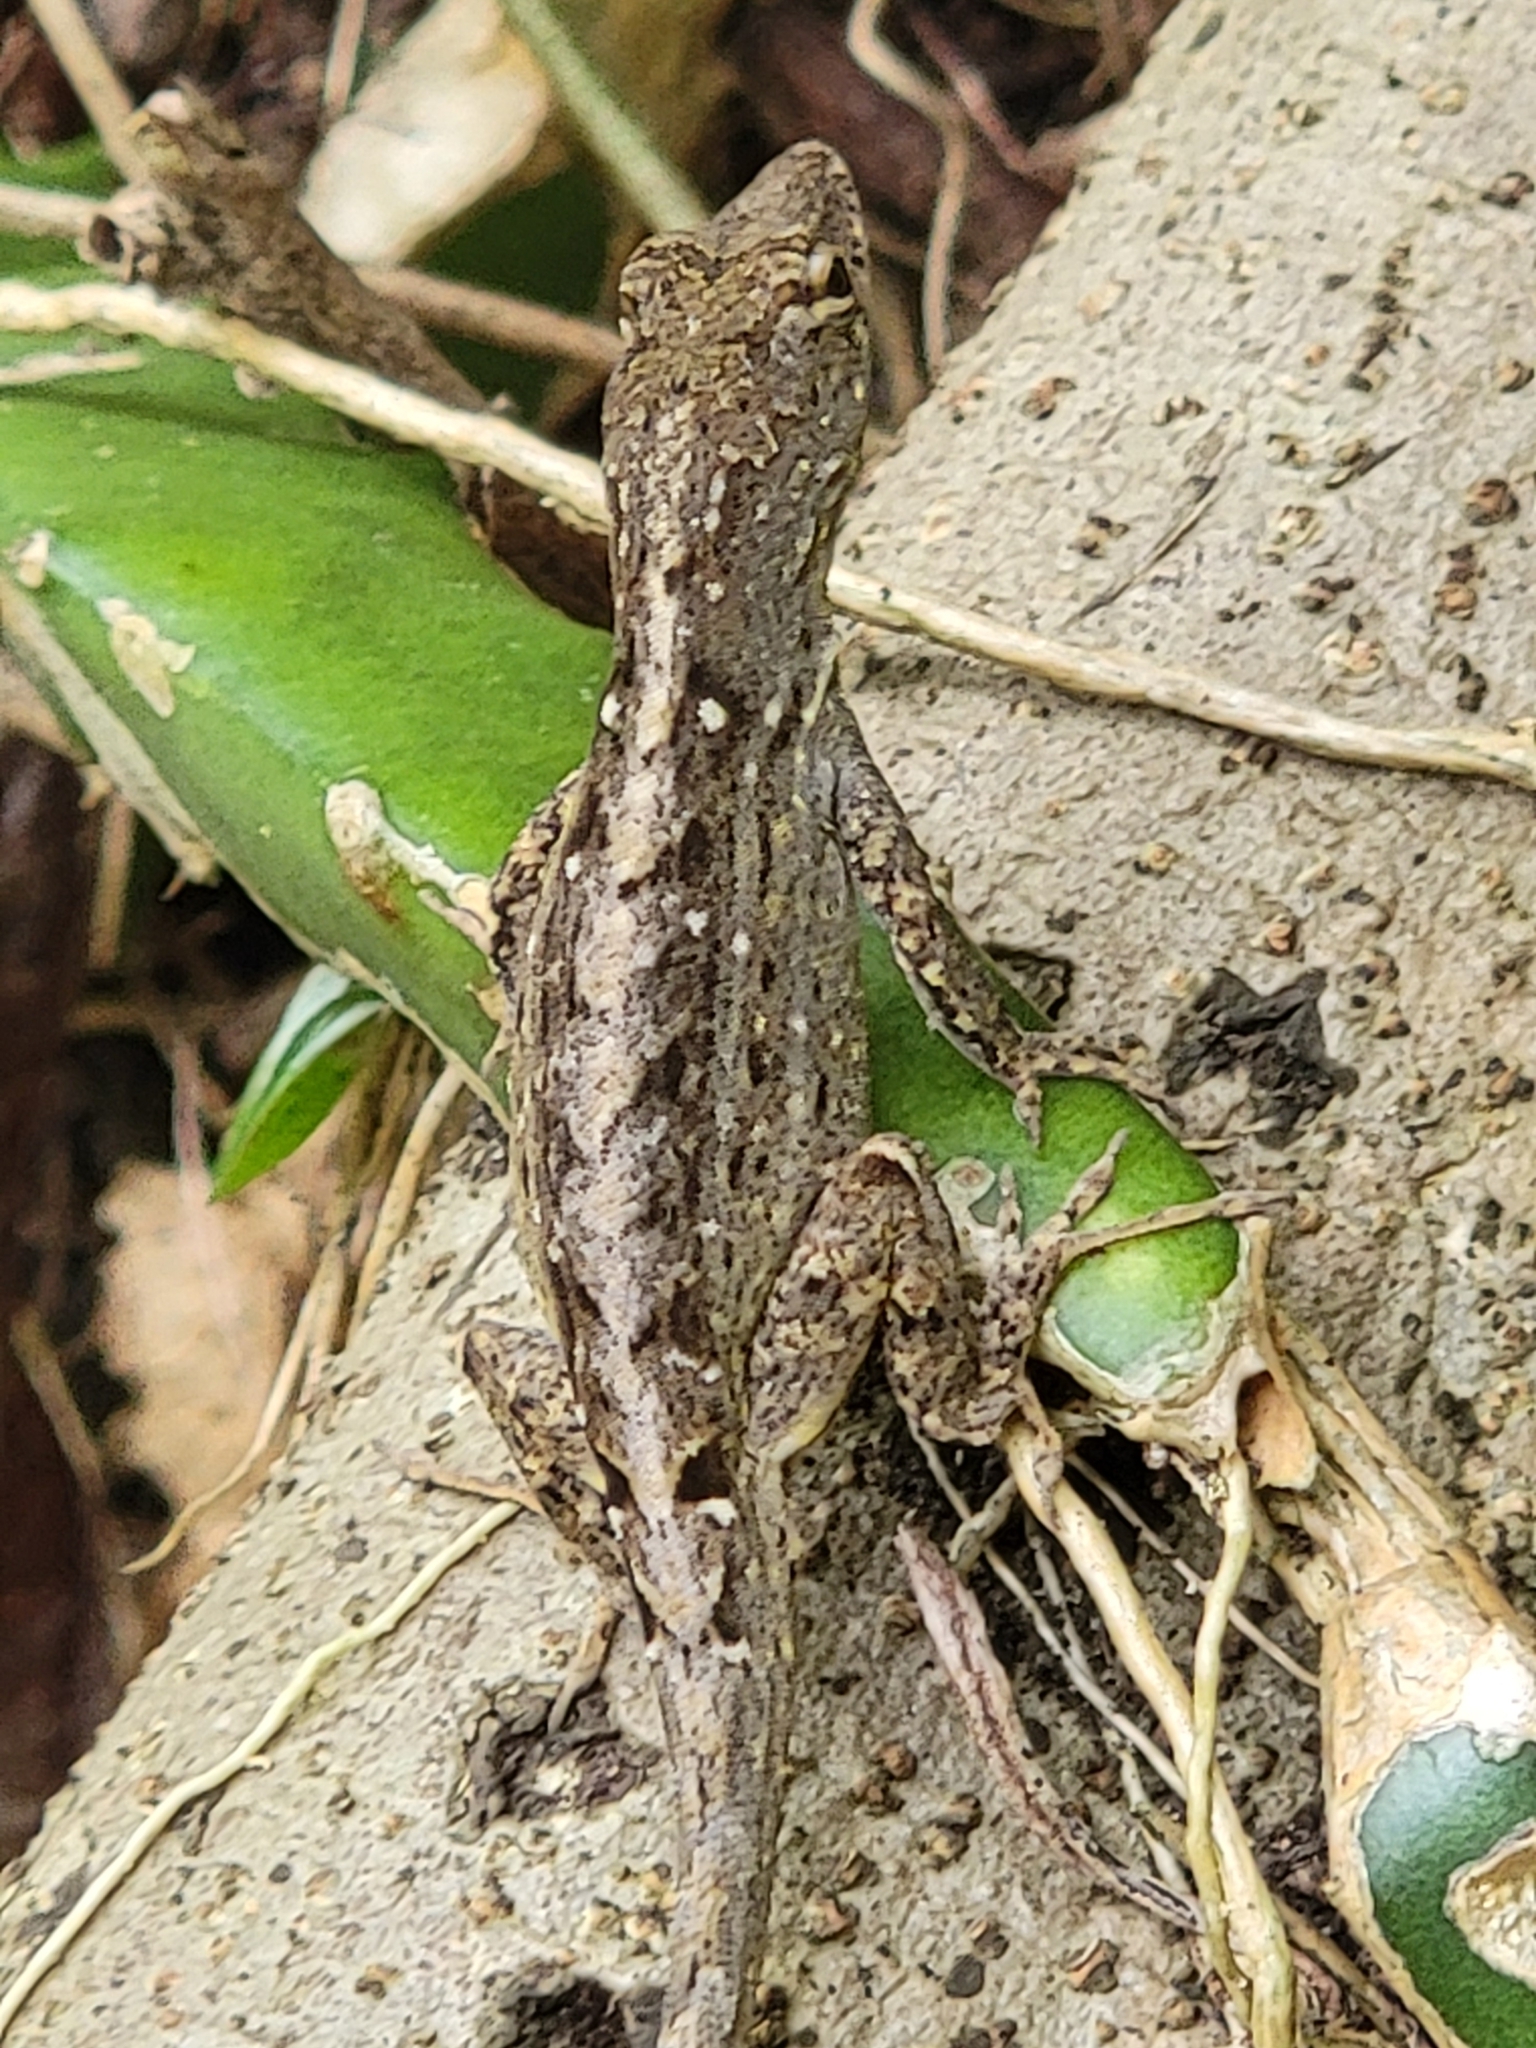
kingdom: Animalia
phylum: Chordata
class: Squamata
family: Dactyloidae
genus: Anolis
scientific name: Anolis sagrei
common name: Brown anole
